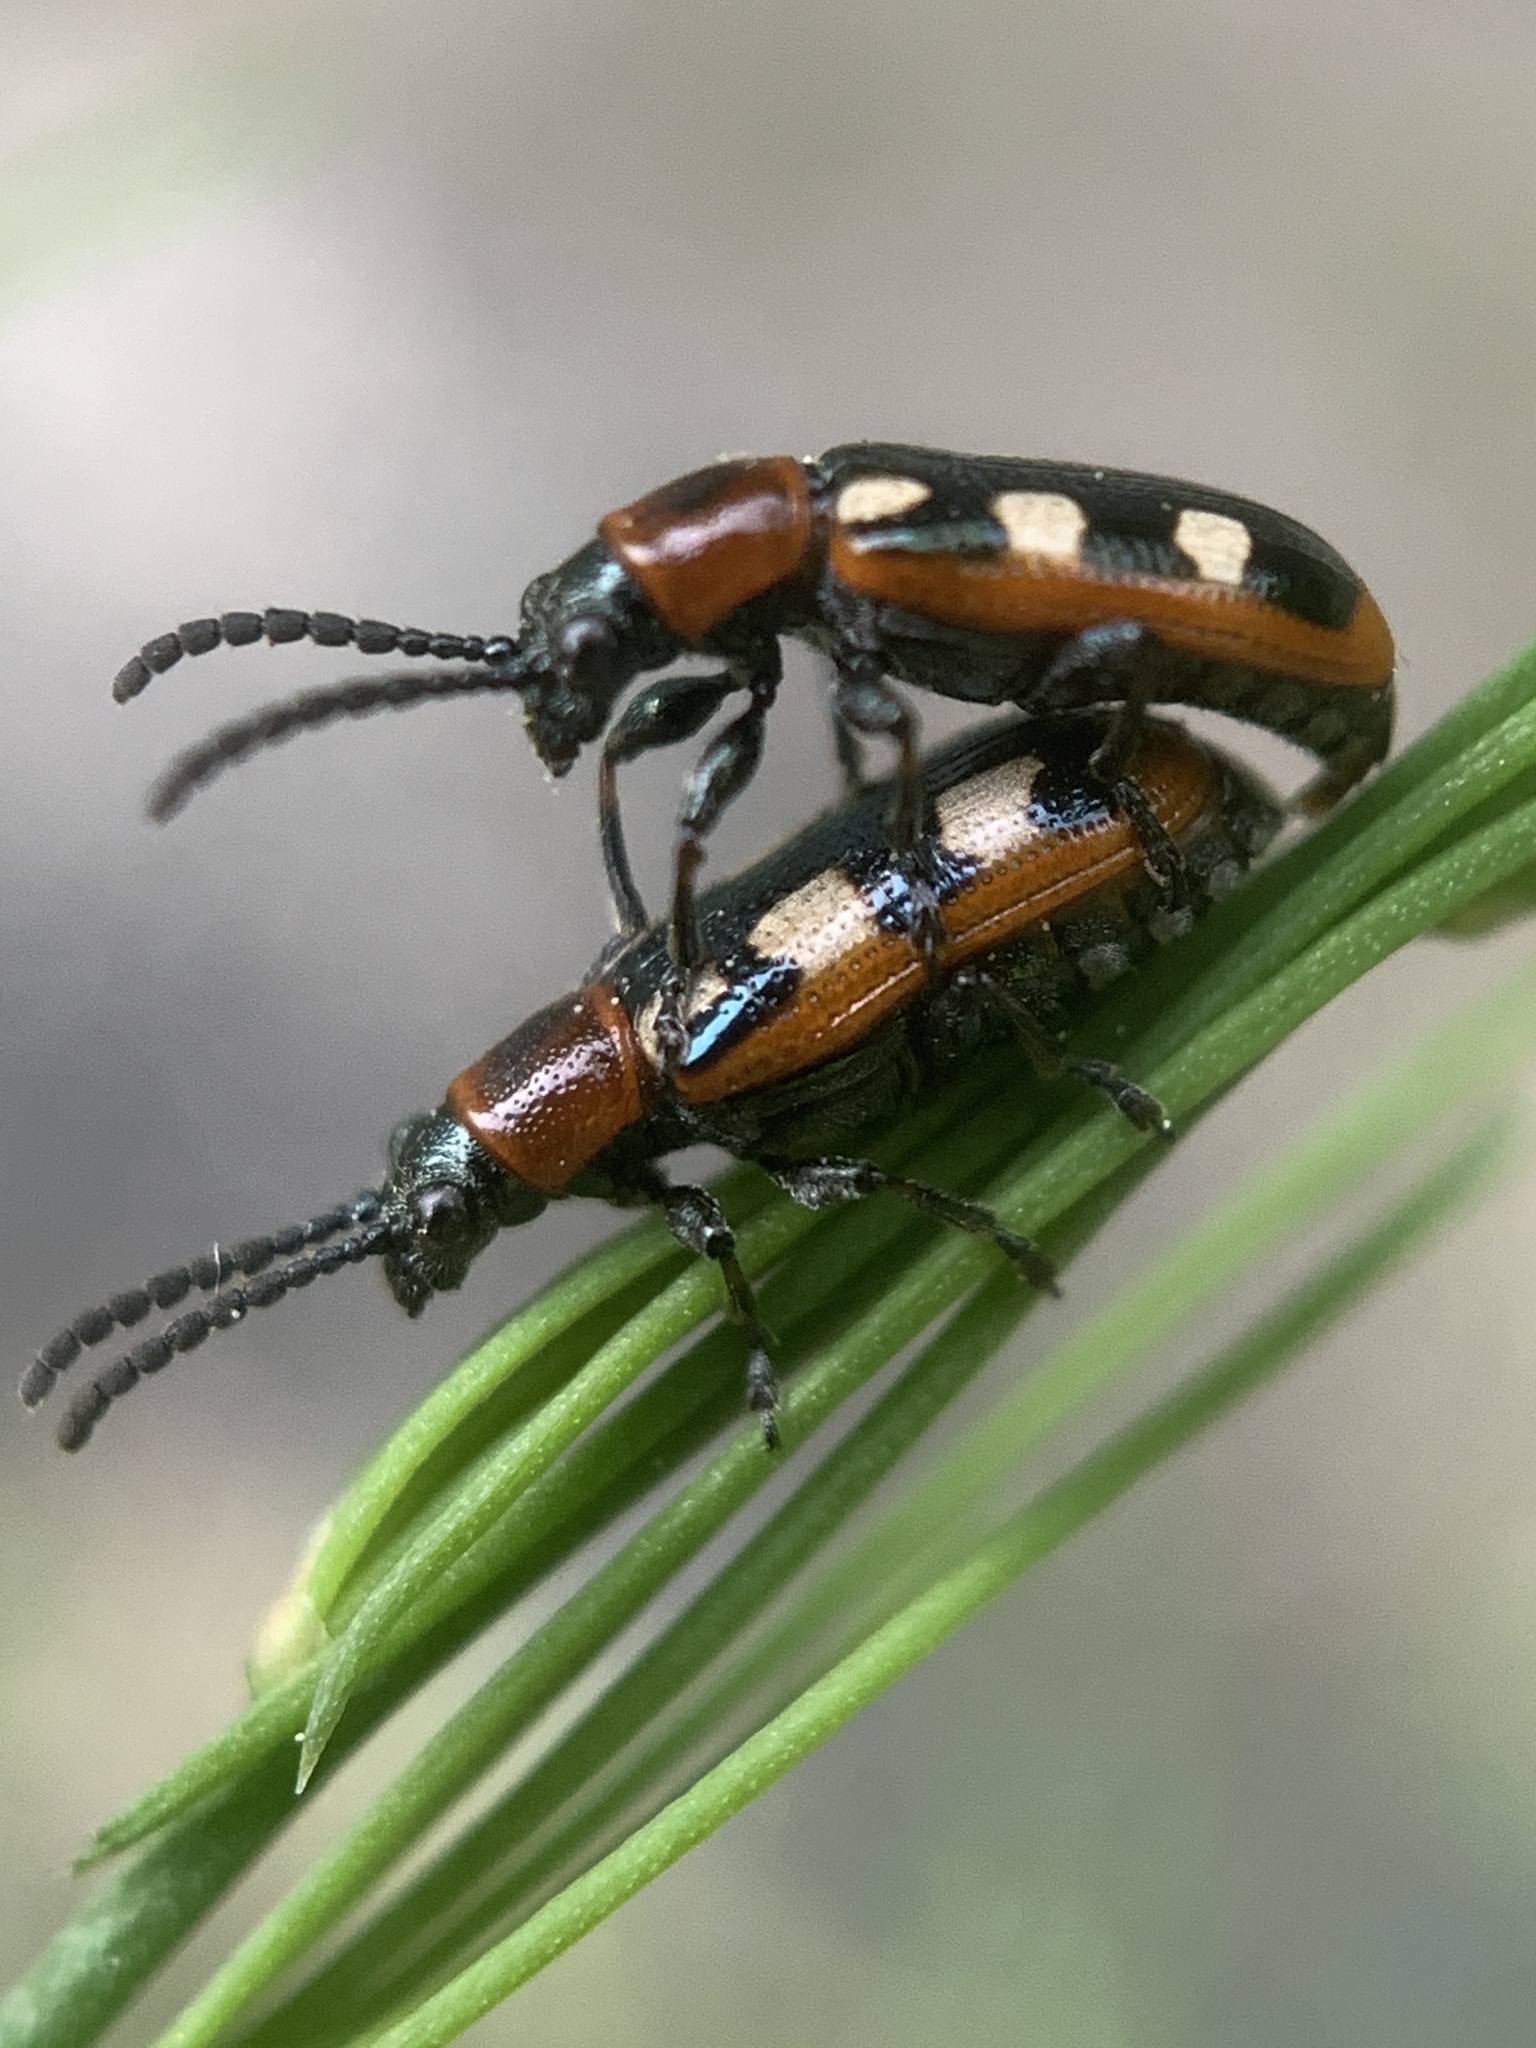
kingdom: Animalia
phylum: Arthropoda
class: Insecta
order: Coleoptera
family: Chrysomelidae
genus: Crioceris
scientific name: Crioceris asparagi
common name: Asparagus beetle
